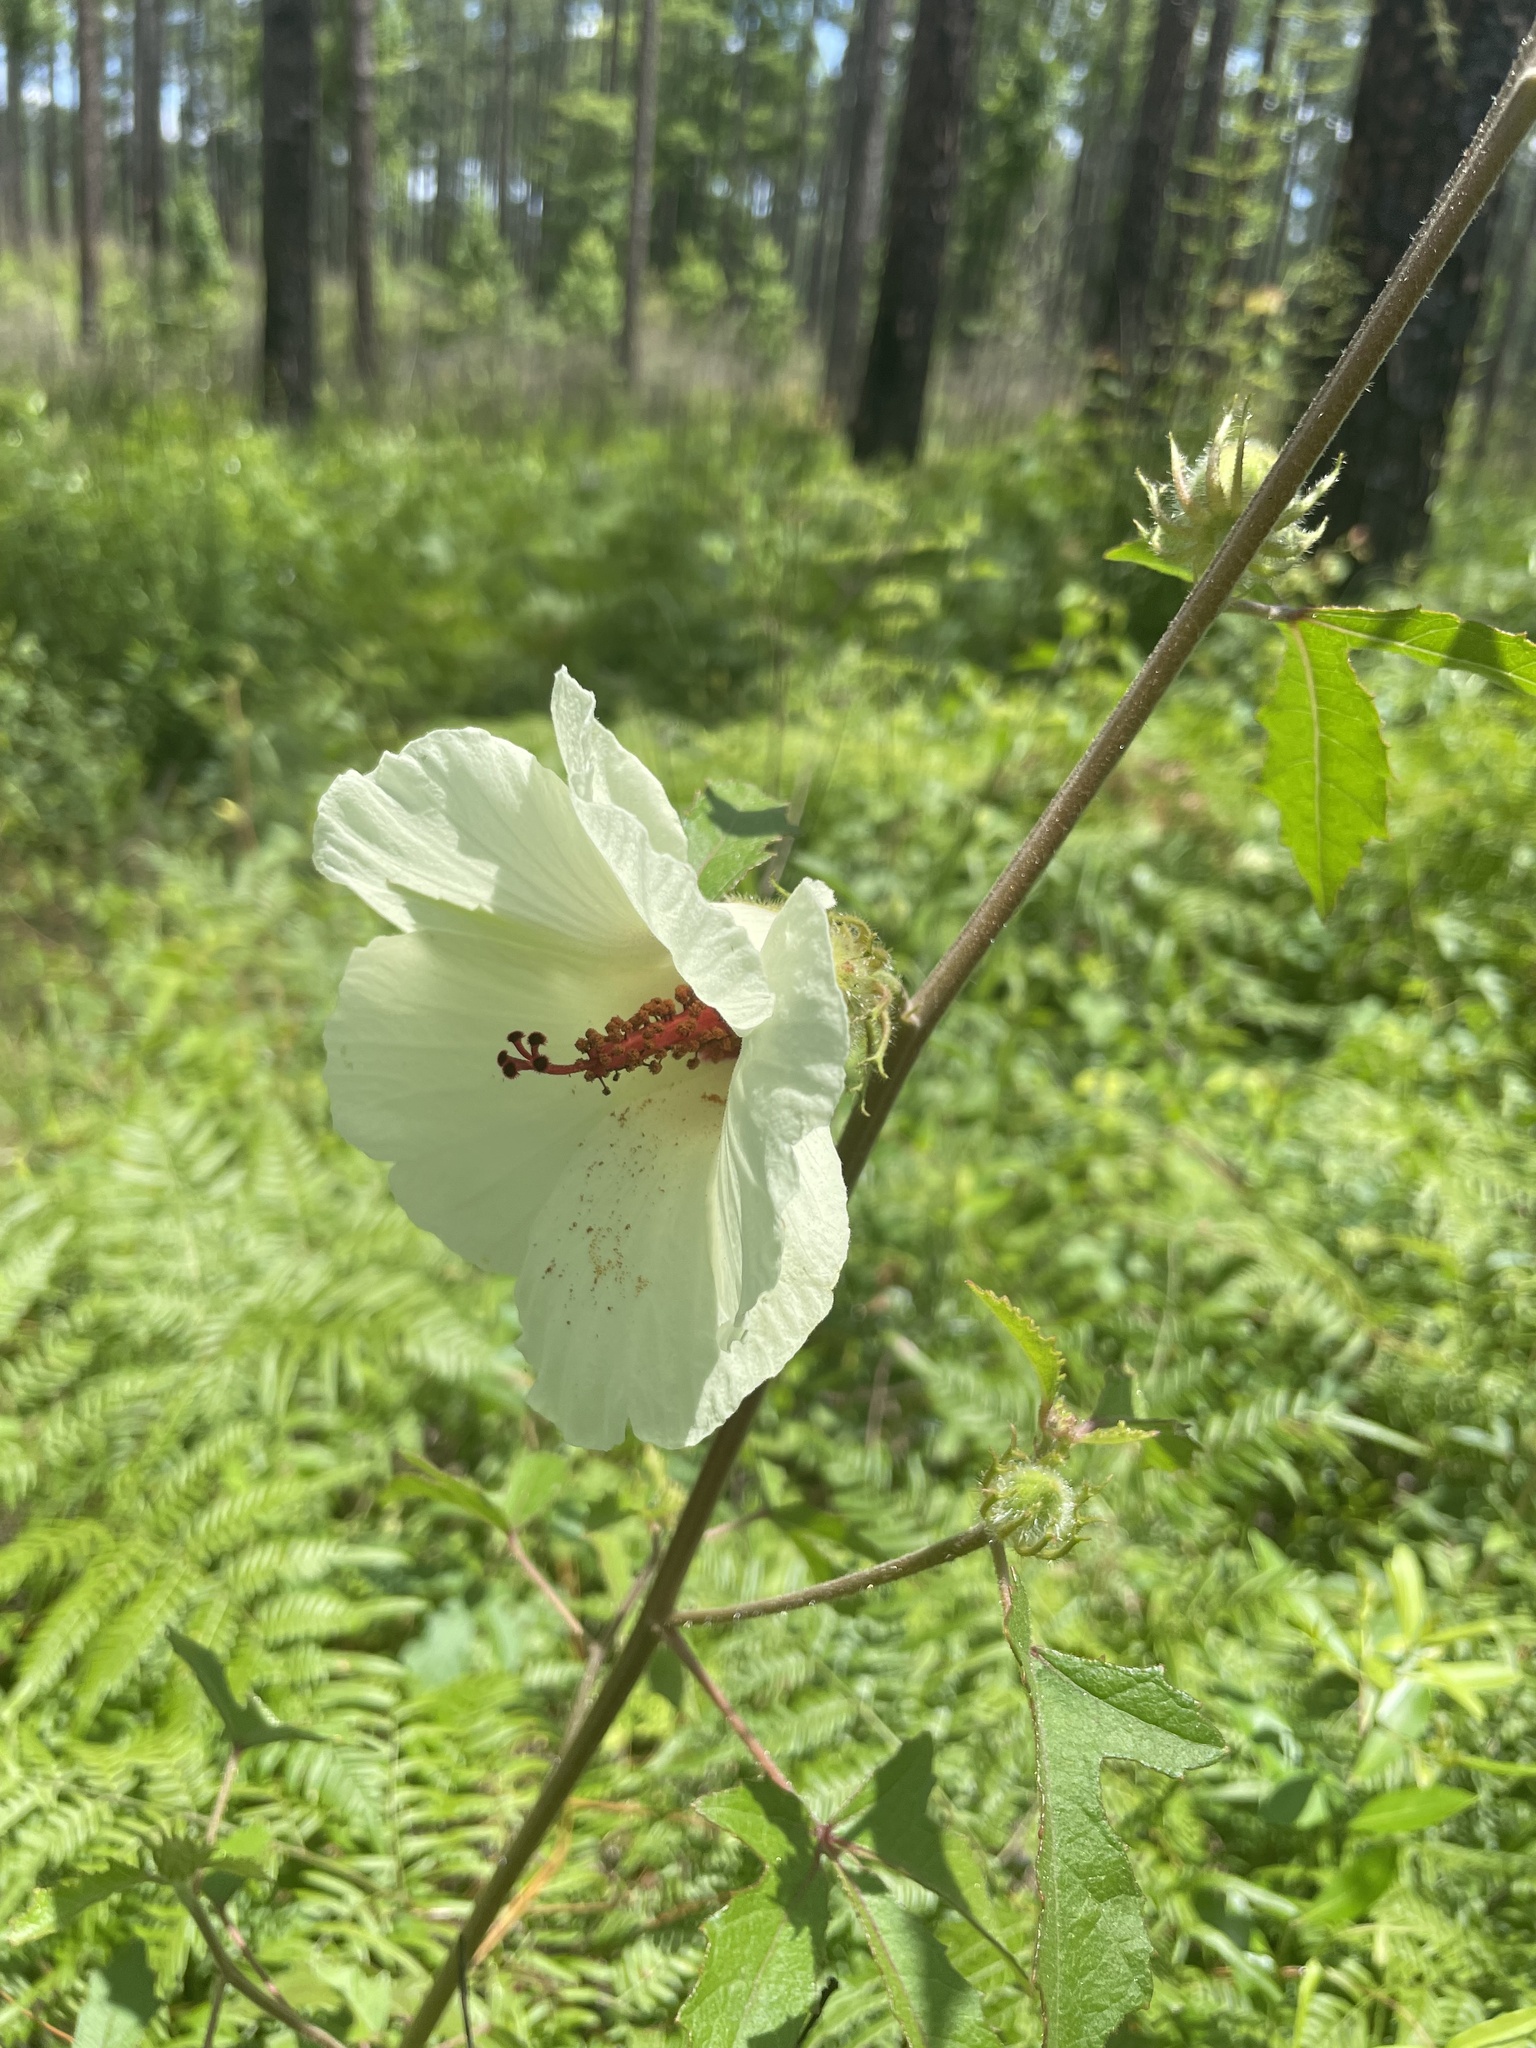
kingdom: Plantae
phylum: Tracheophyta
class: Magnoliopsida
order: Malvales
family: Malvaceae
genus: Hibiscus
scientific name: Hibiscus aculeatus
